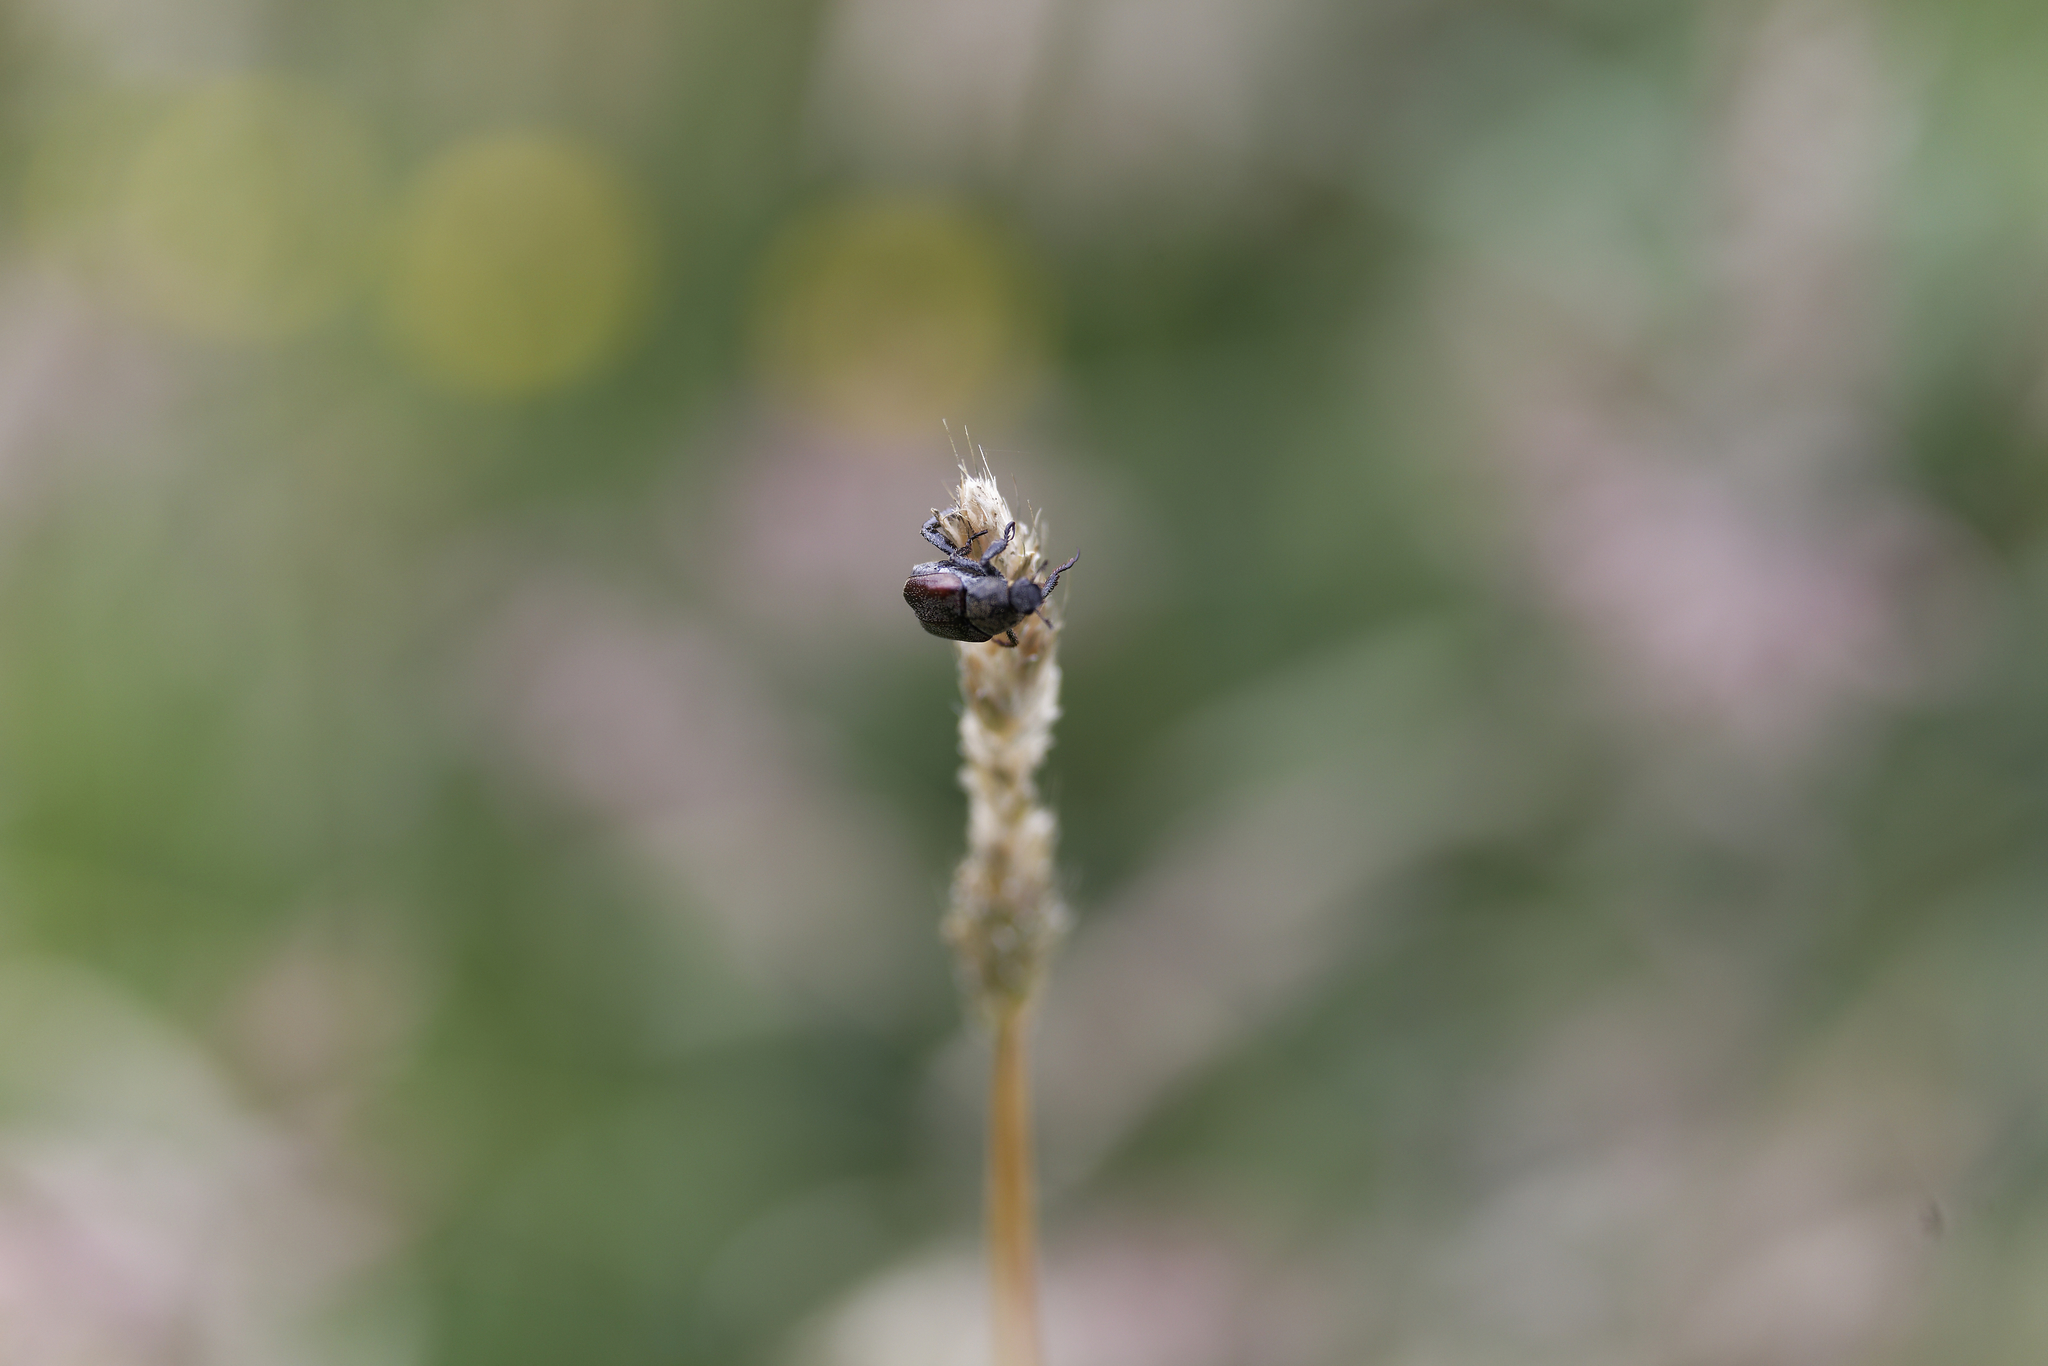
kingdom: Animalia
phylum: Arthropoda
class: Insecta
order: Coleoptera
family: Scarabaeidae
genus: Hoplia
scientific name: Hoplia philanthus
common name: Welsh chafer
